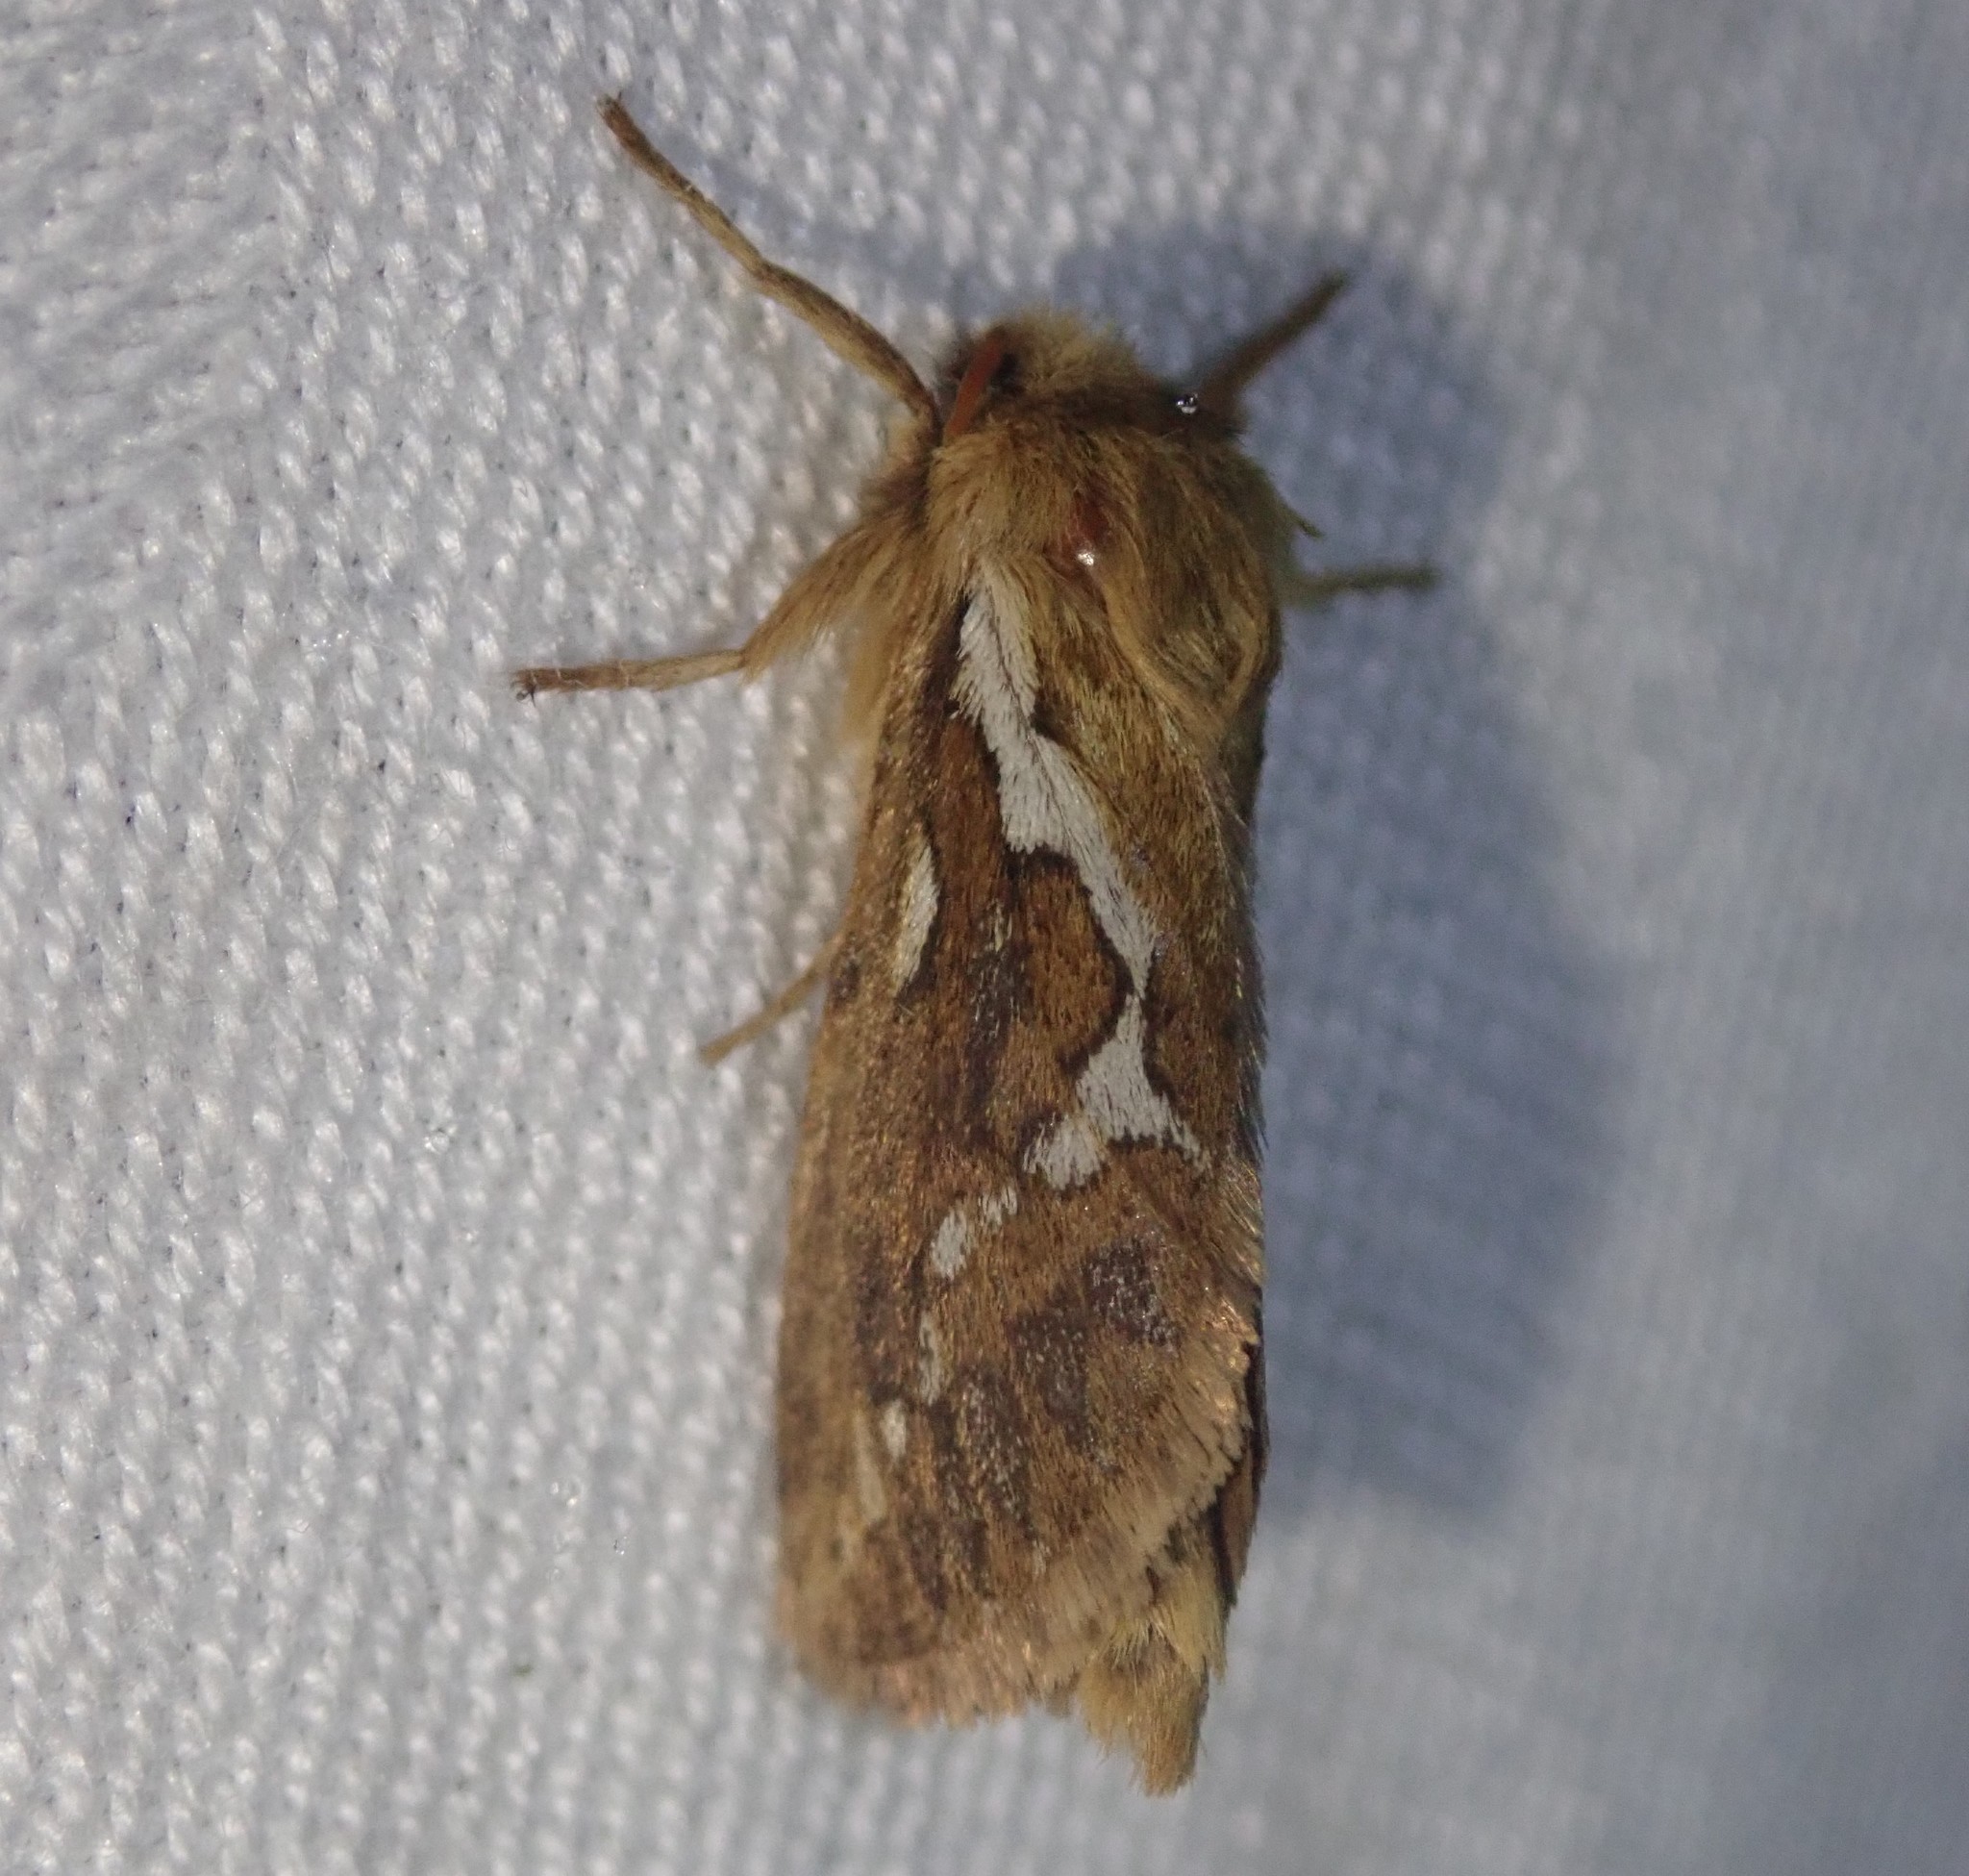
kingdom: Animalia
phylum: Arthropoda
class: Insecta
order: Lepidoptera
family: Hepialidae
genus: Korscheltellus
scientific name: Korscheltellus lupulina
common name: Common swift
